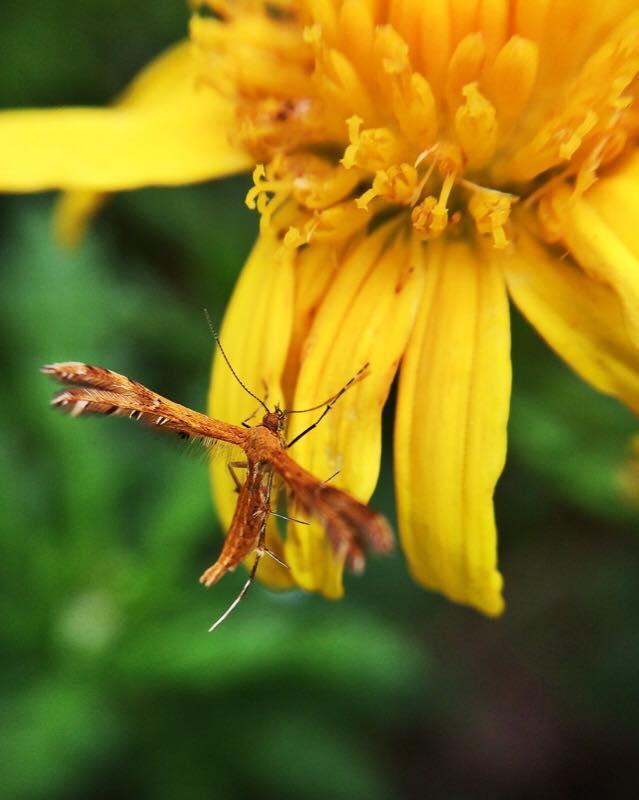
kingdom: Animalia
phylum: Arthropoda
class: Insecta
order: Lepidoptera
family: Pterophoridae
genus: Stenodacma
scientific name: Stenodacma wahlbergi
